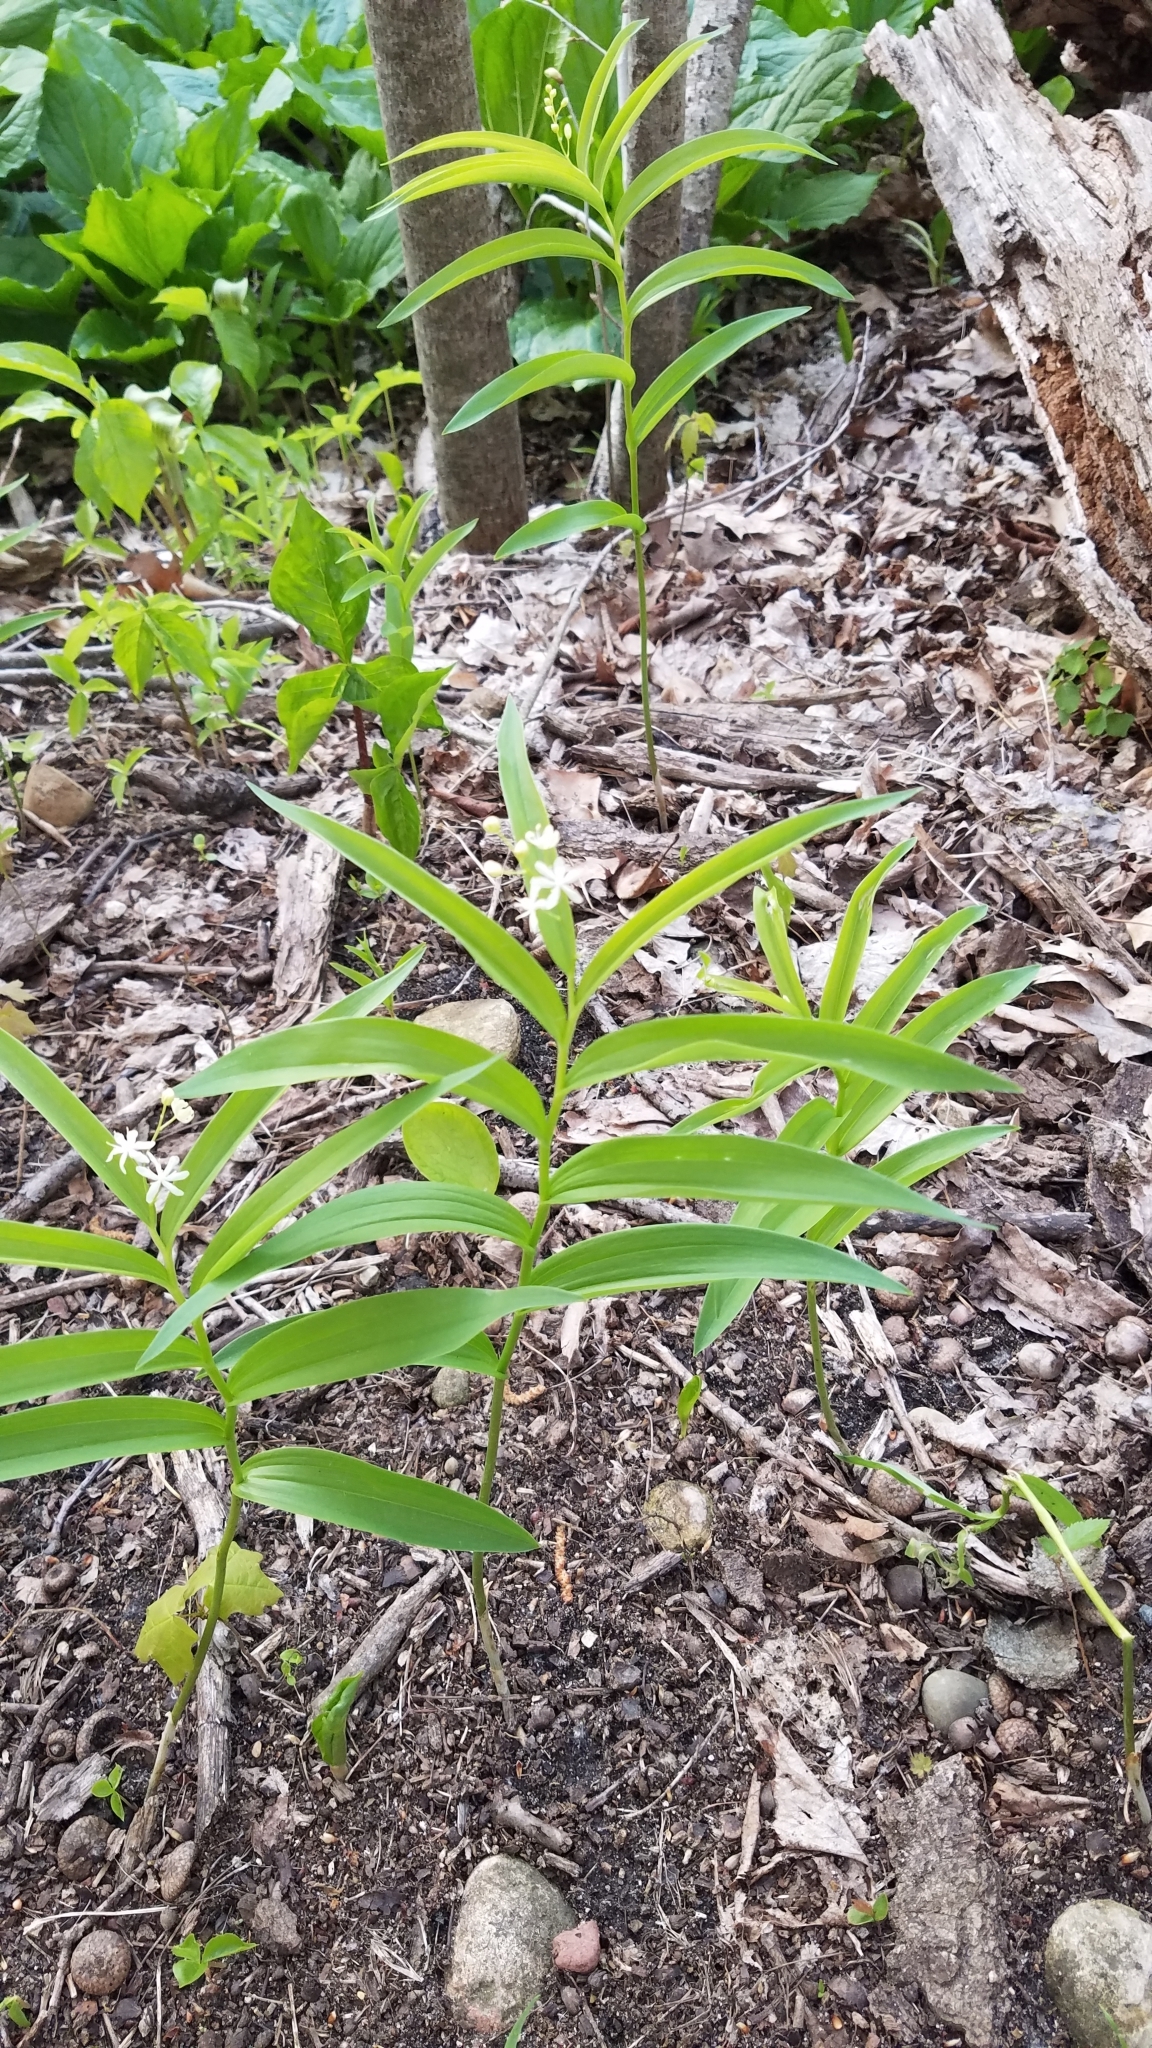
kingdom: Plantae
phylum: Tracheophyta
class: Liliopsida
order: Asparagales
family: Asparagaceae
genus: Maianthemum
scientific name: Maianthemum stellatum
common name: Little false solomon's seal
